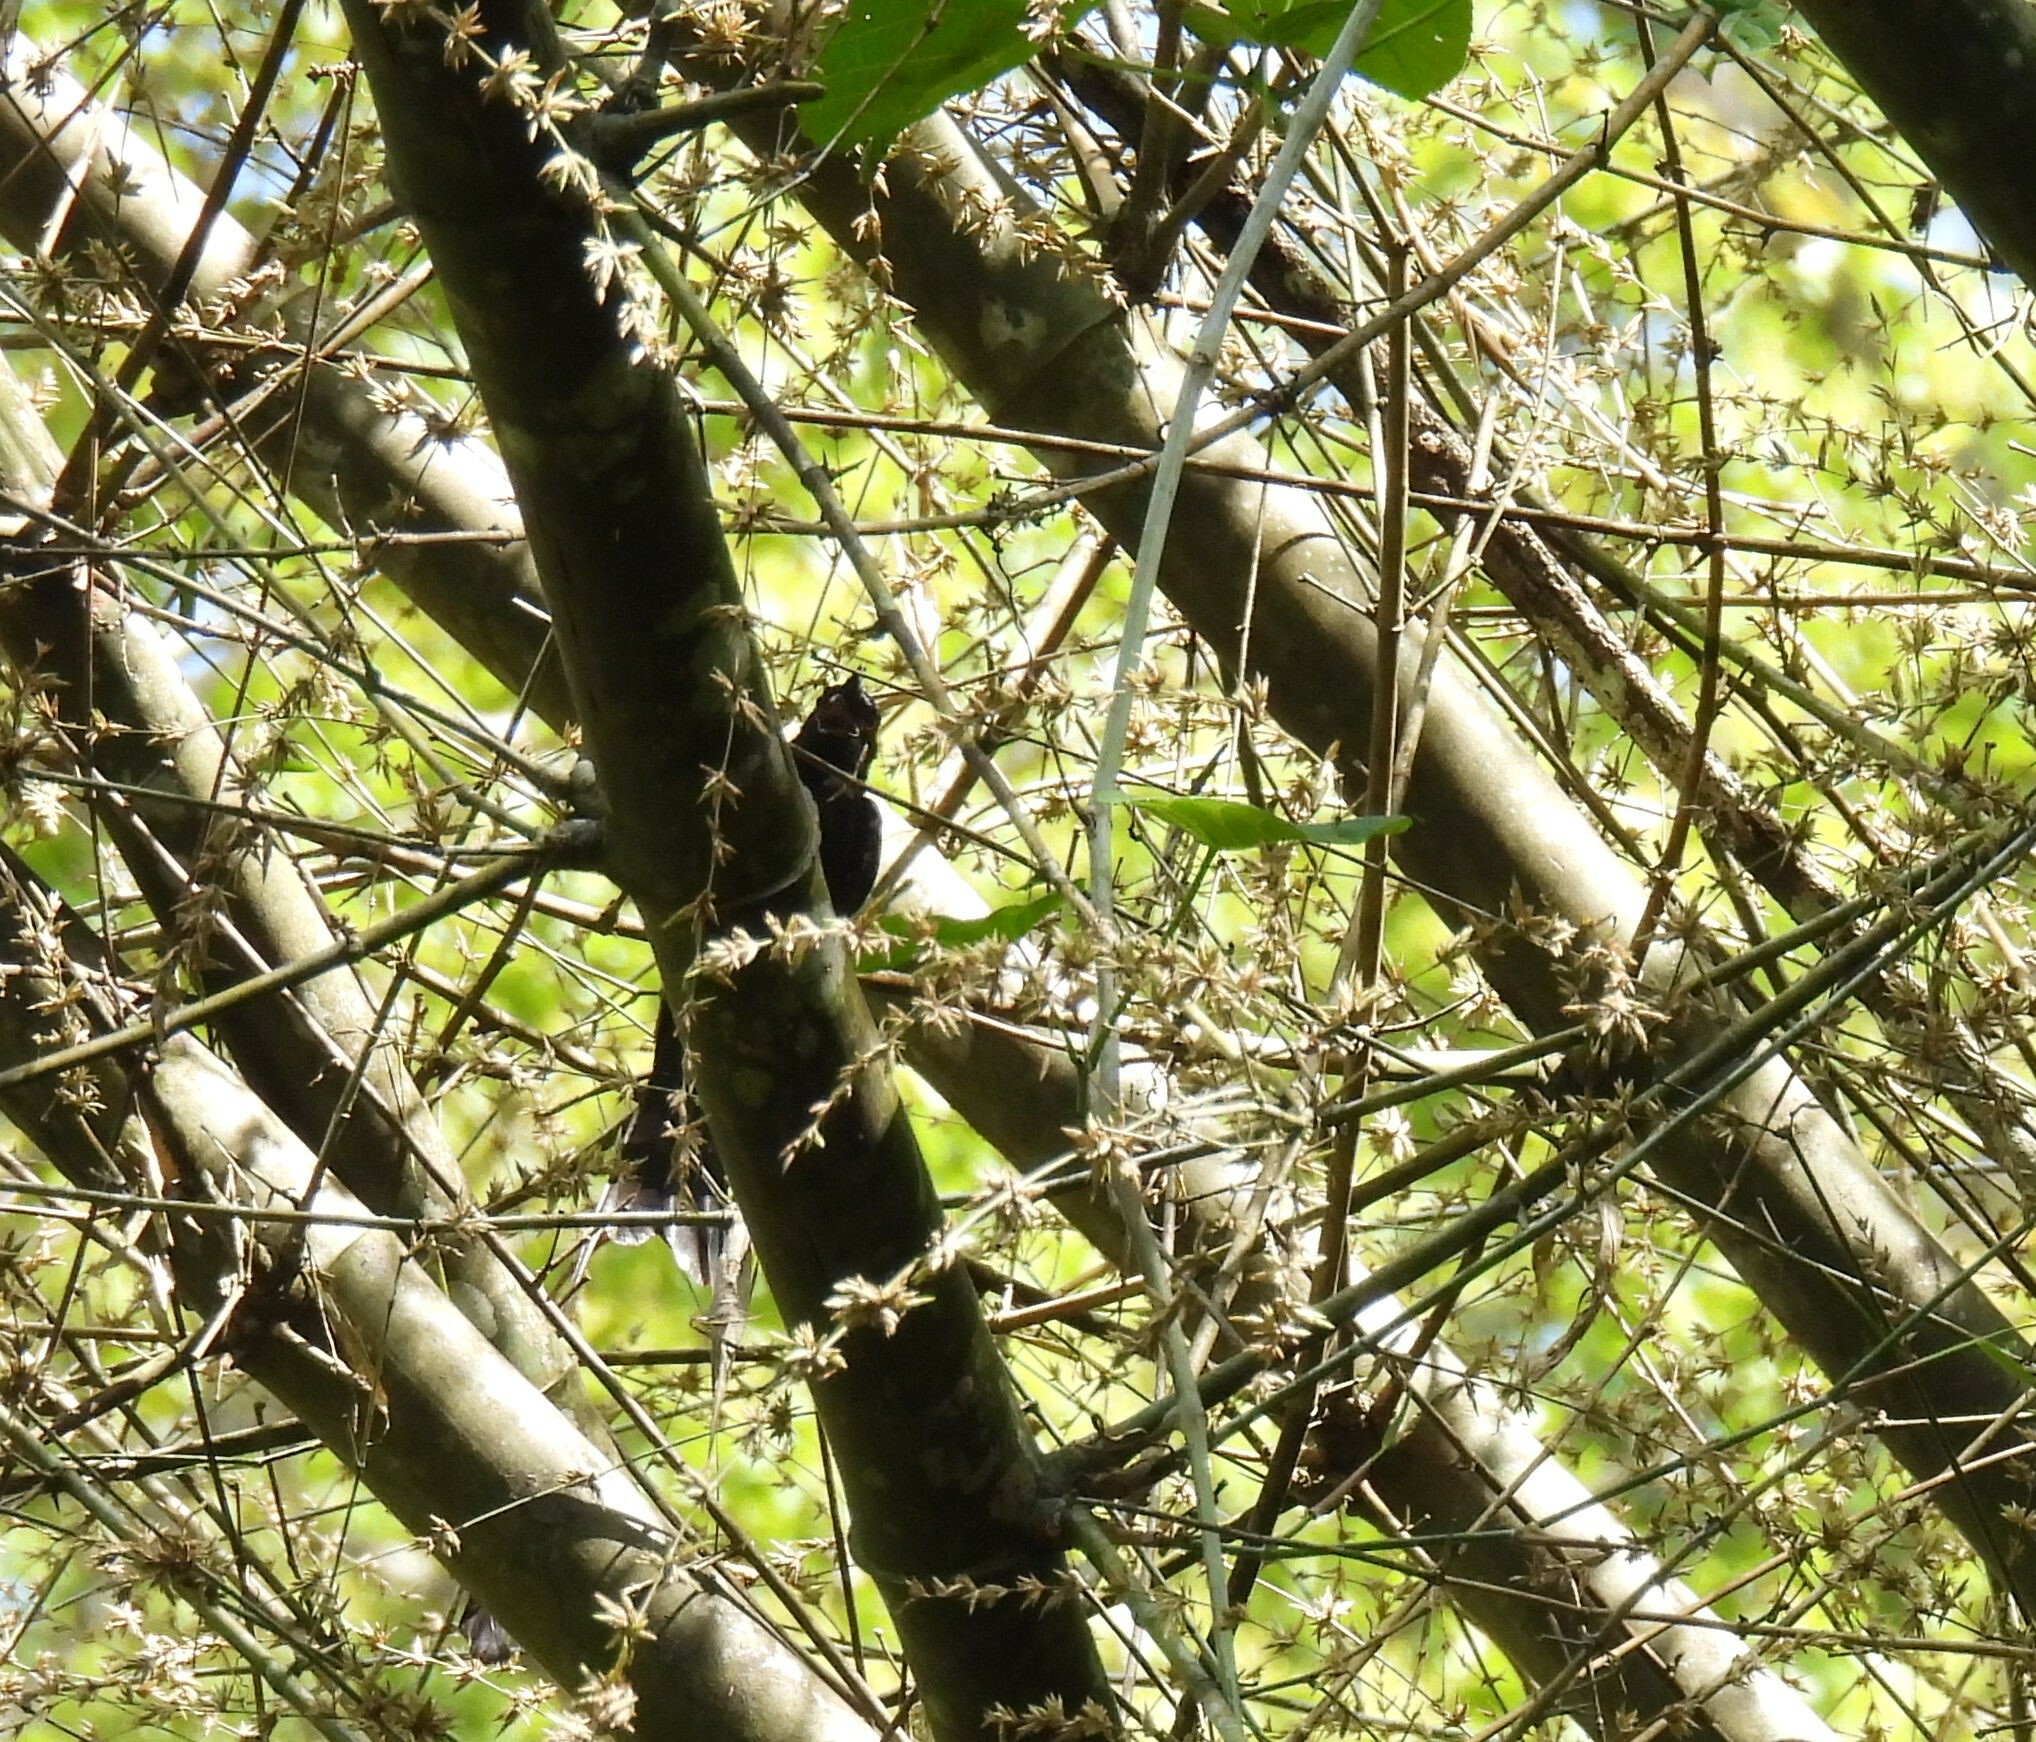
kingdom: Animalia
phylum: Chordata
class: Aves
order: Passeriformes
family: Dicruridae
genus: Dicrurus
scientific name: Dicrurus macrocercus
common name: Black drongo
